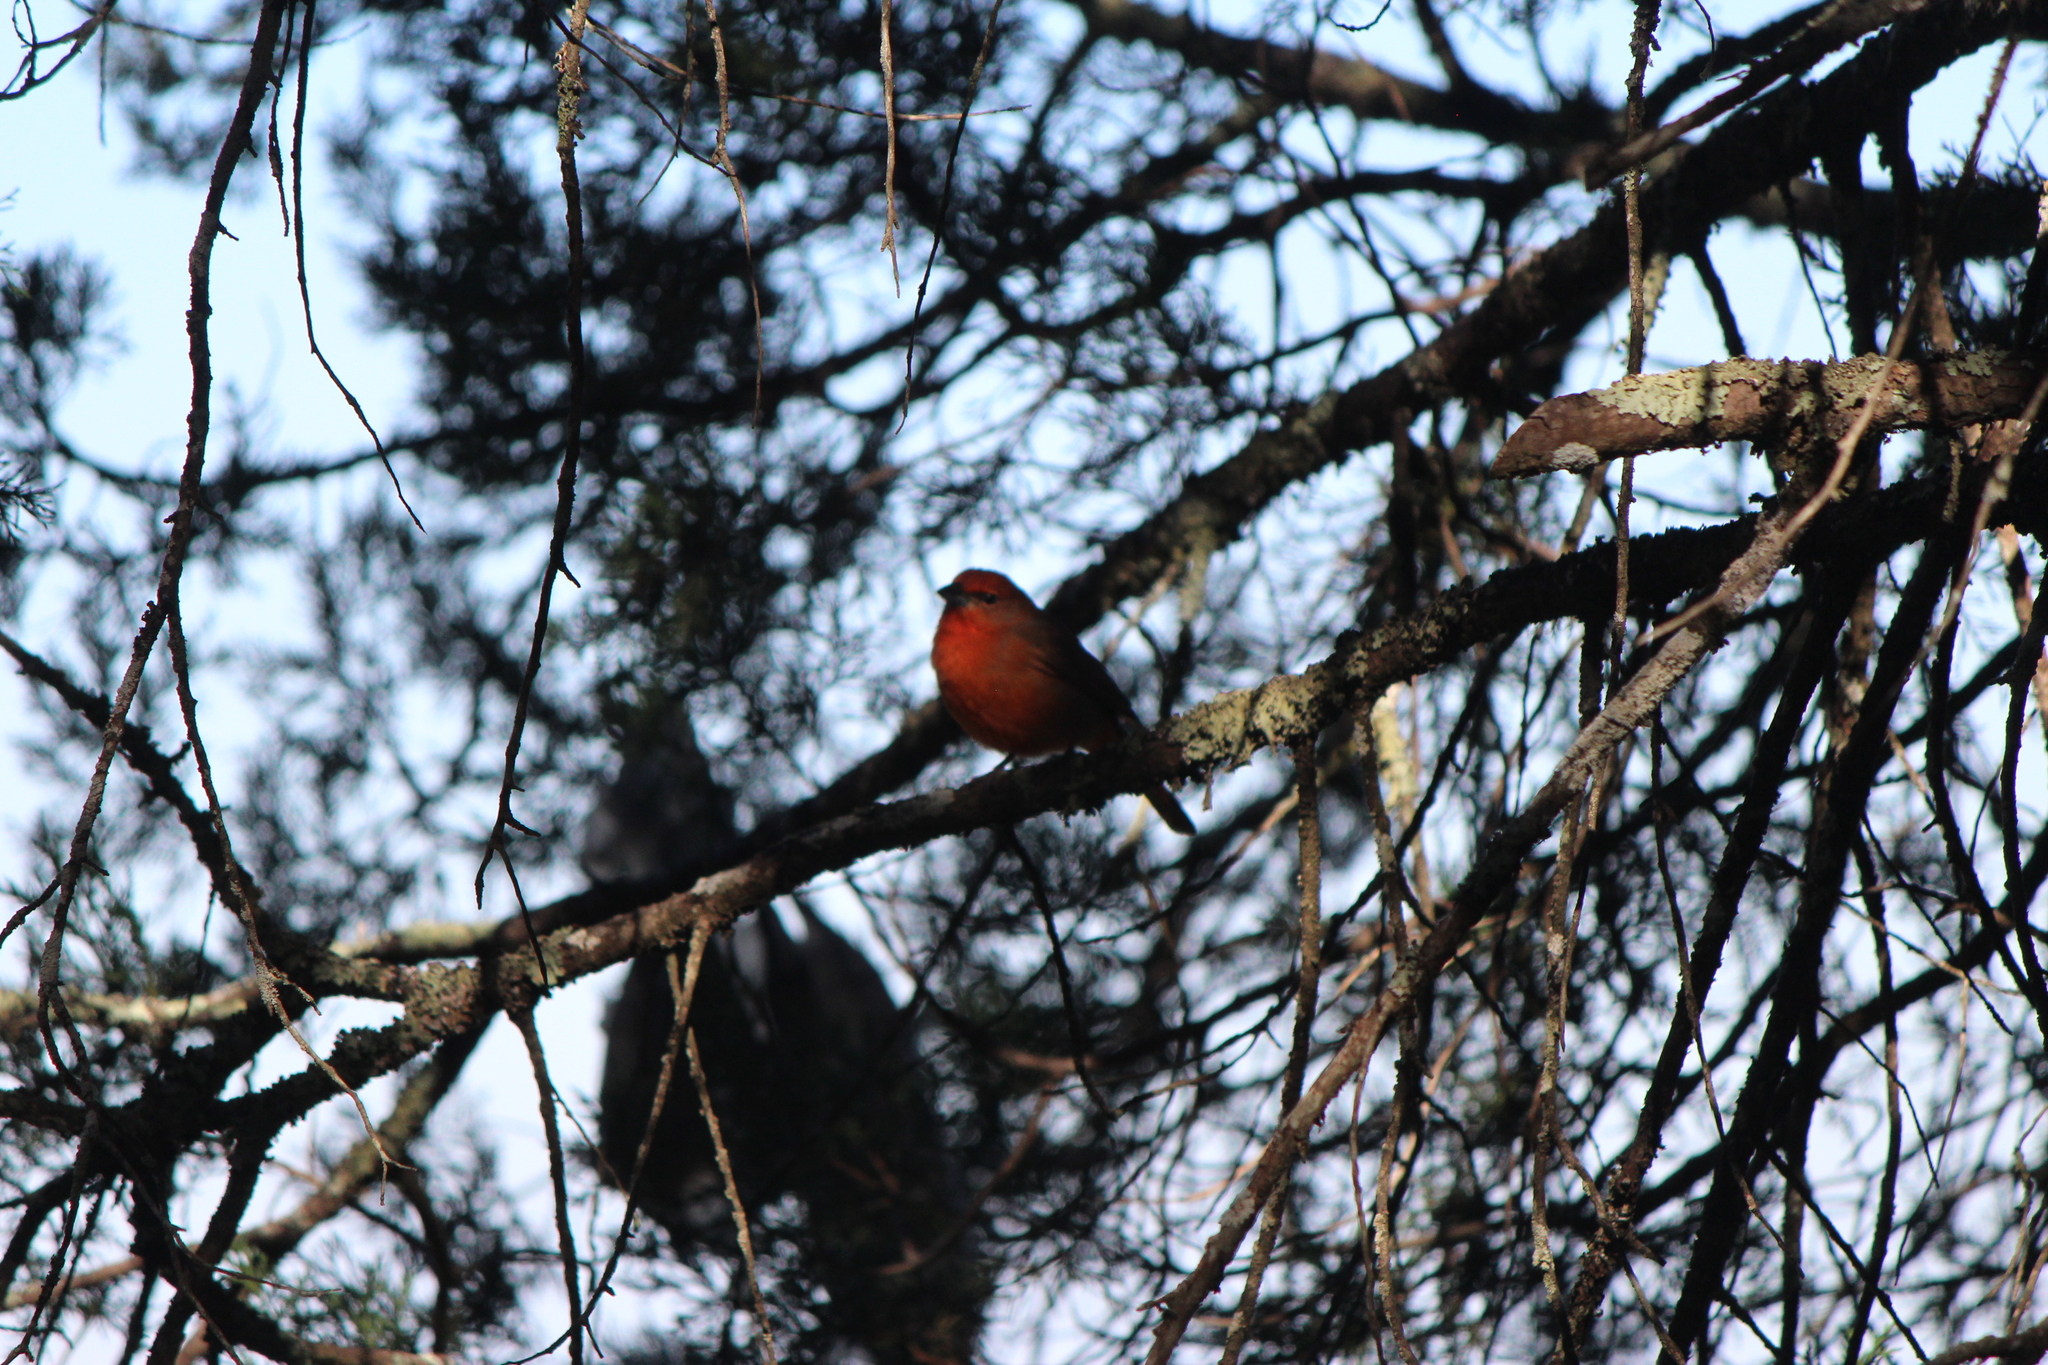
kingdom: Animalia
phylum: Chordata
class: Aves
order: Passeriformes
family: Cardinalidae
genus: Piranga
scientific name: Piranga flava
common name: Red tanager
